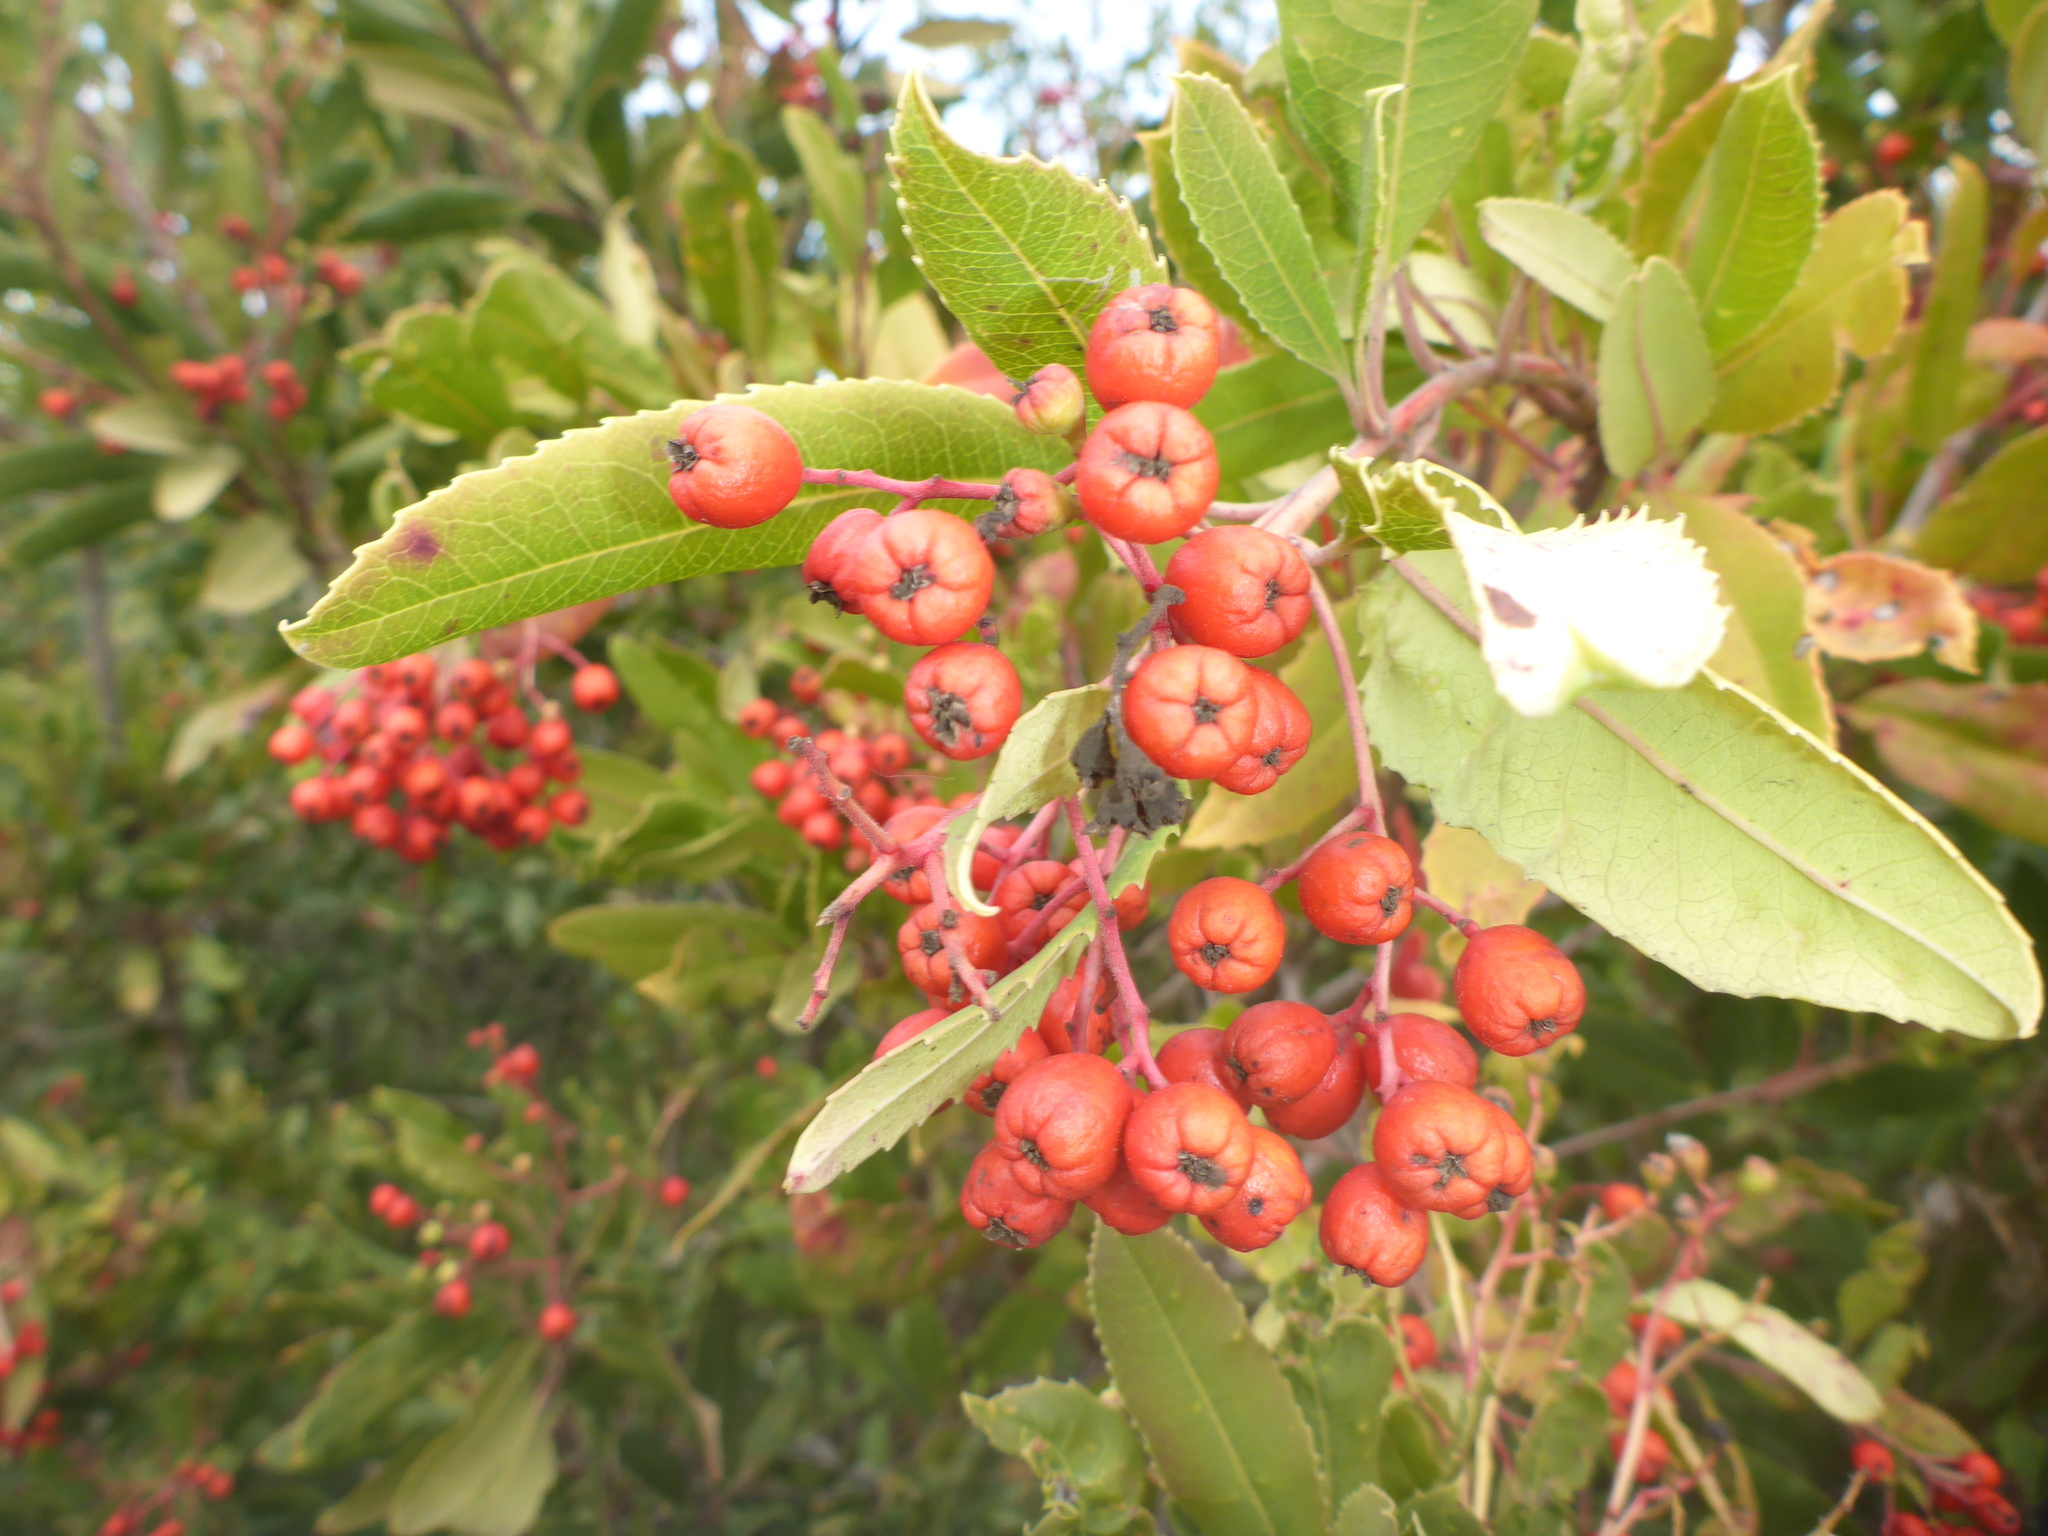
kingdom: Plantae
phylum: Tracheophyta
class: Magnoliopsida
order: Rosales
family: Rosaceae
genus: Heteromeles
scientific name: Heteromeles arbutifolia
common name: California-holly
